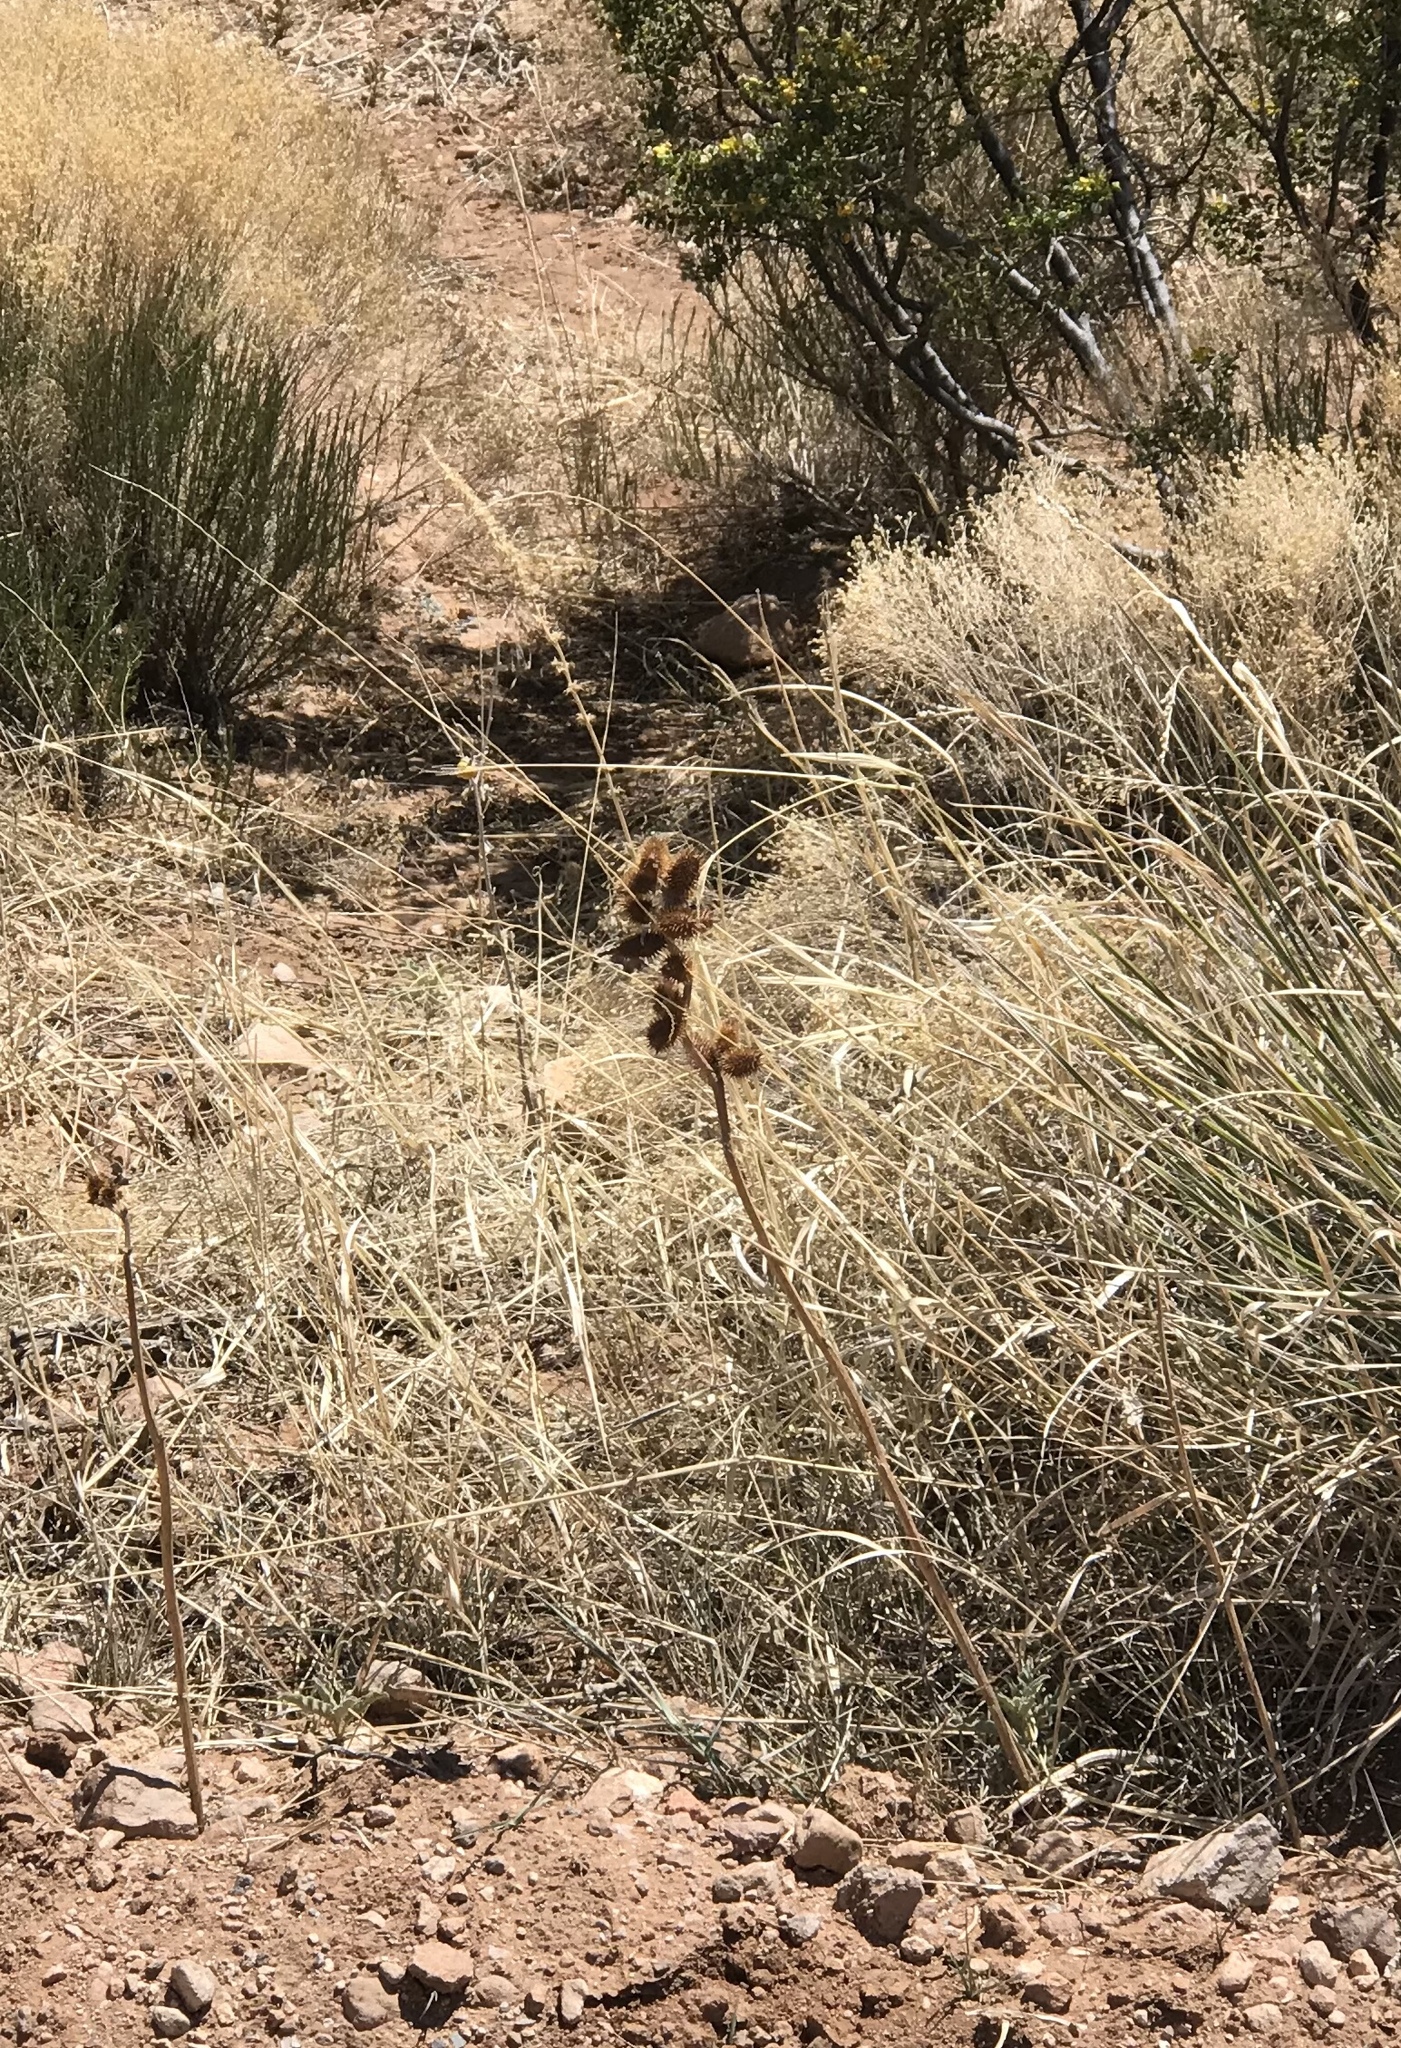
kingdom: Plantae
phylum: Tracheophyta
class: Magnoliopsida
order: Asterales
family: Asteraceae
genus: Xanthium
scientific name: Xanthium strumarium
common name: Rough cocklebur
